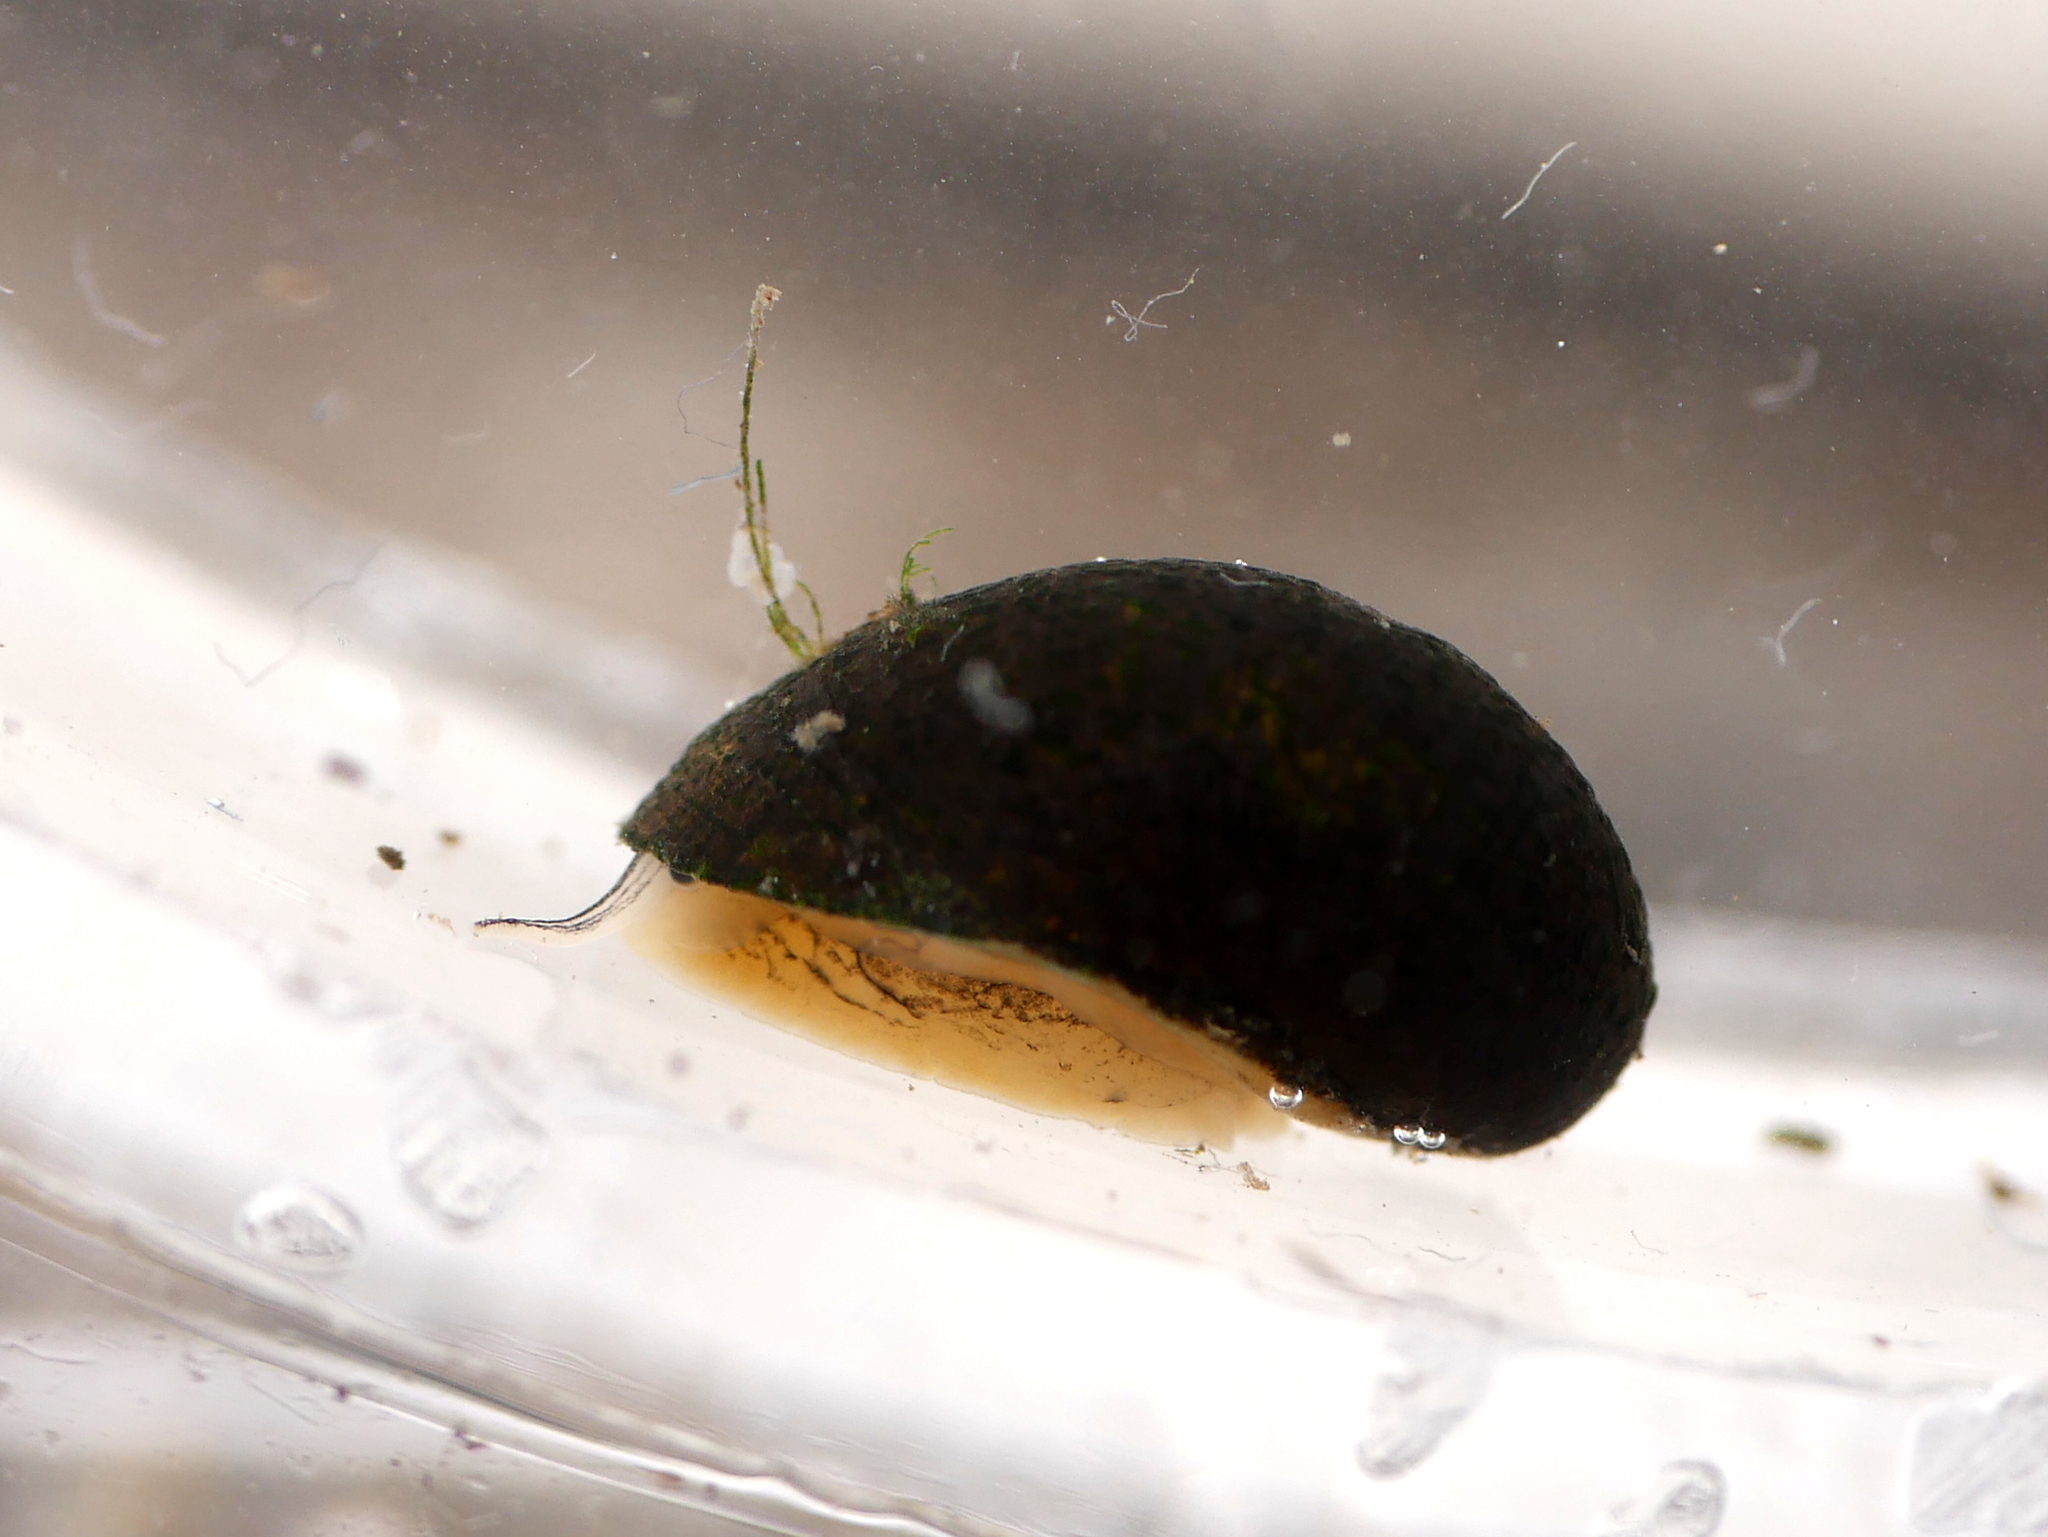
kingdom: Animalia
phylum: Mollusca
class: Gastropoda
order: Cycloneritida
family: Neritidae
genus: Theodoxus
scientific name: Theodoxus fluviatilis
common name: River nerite
